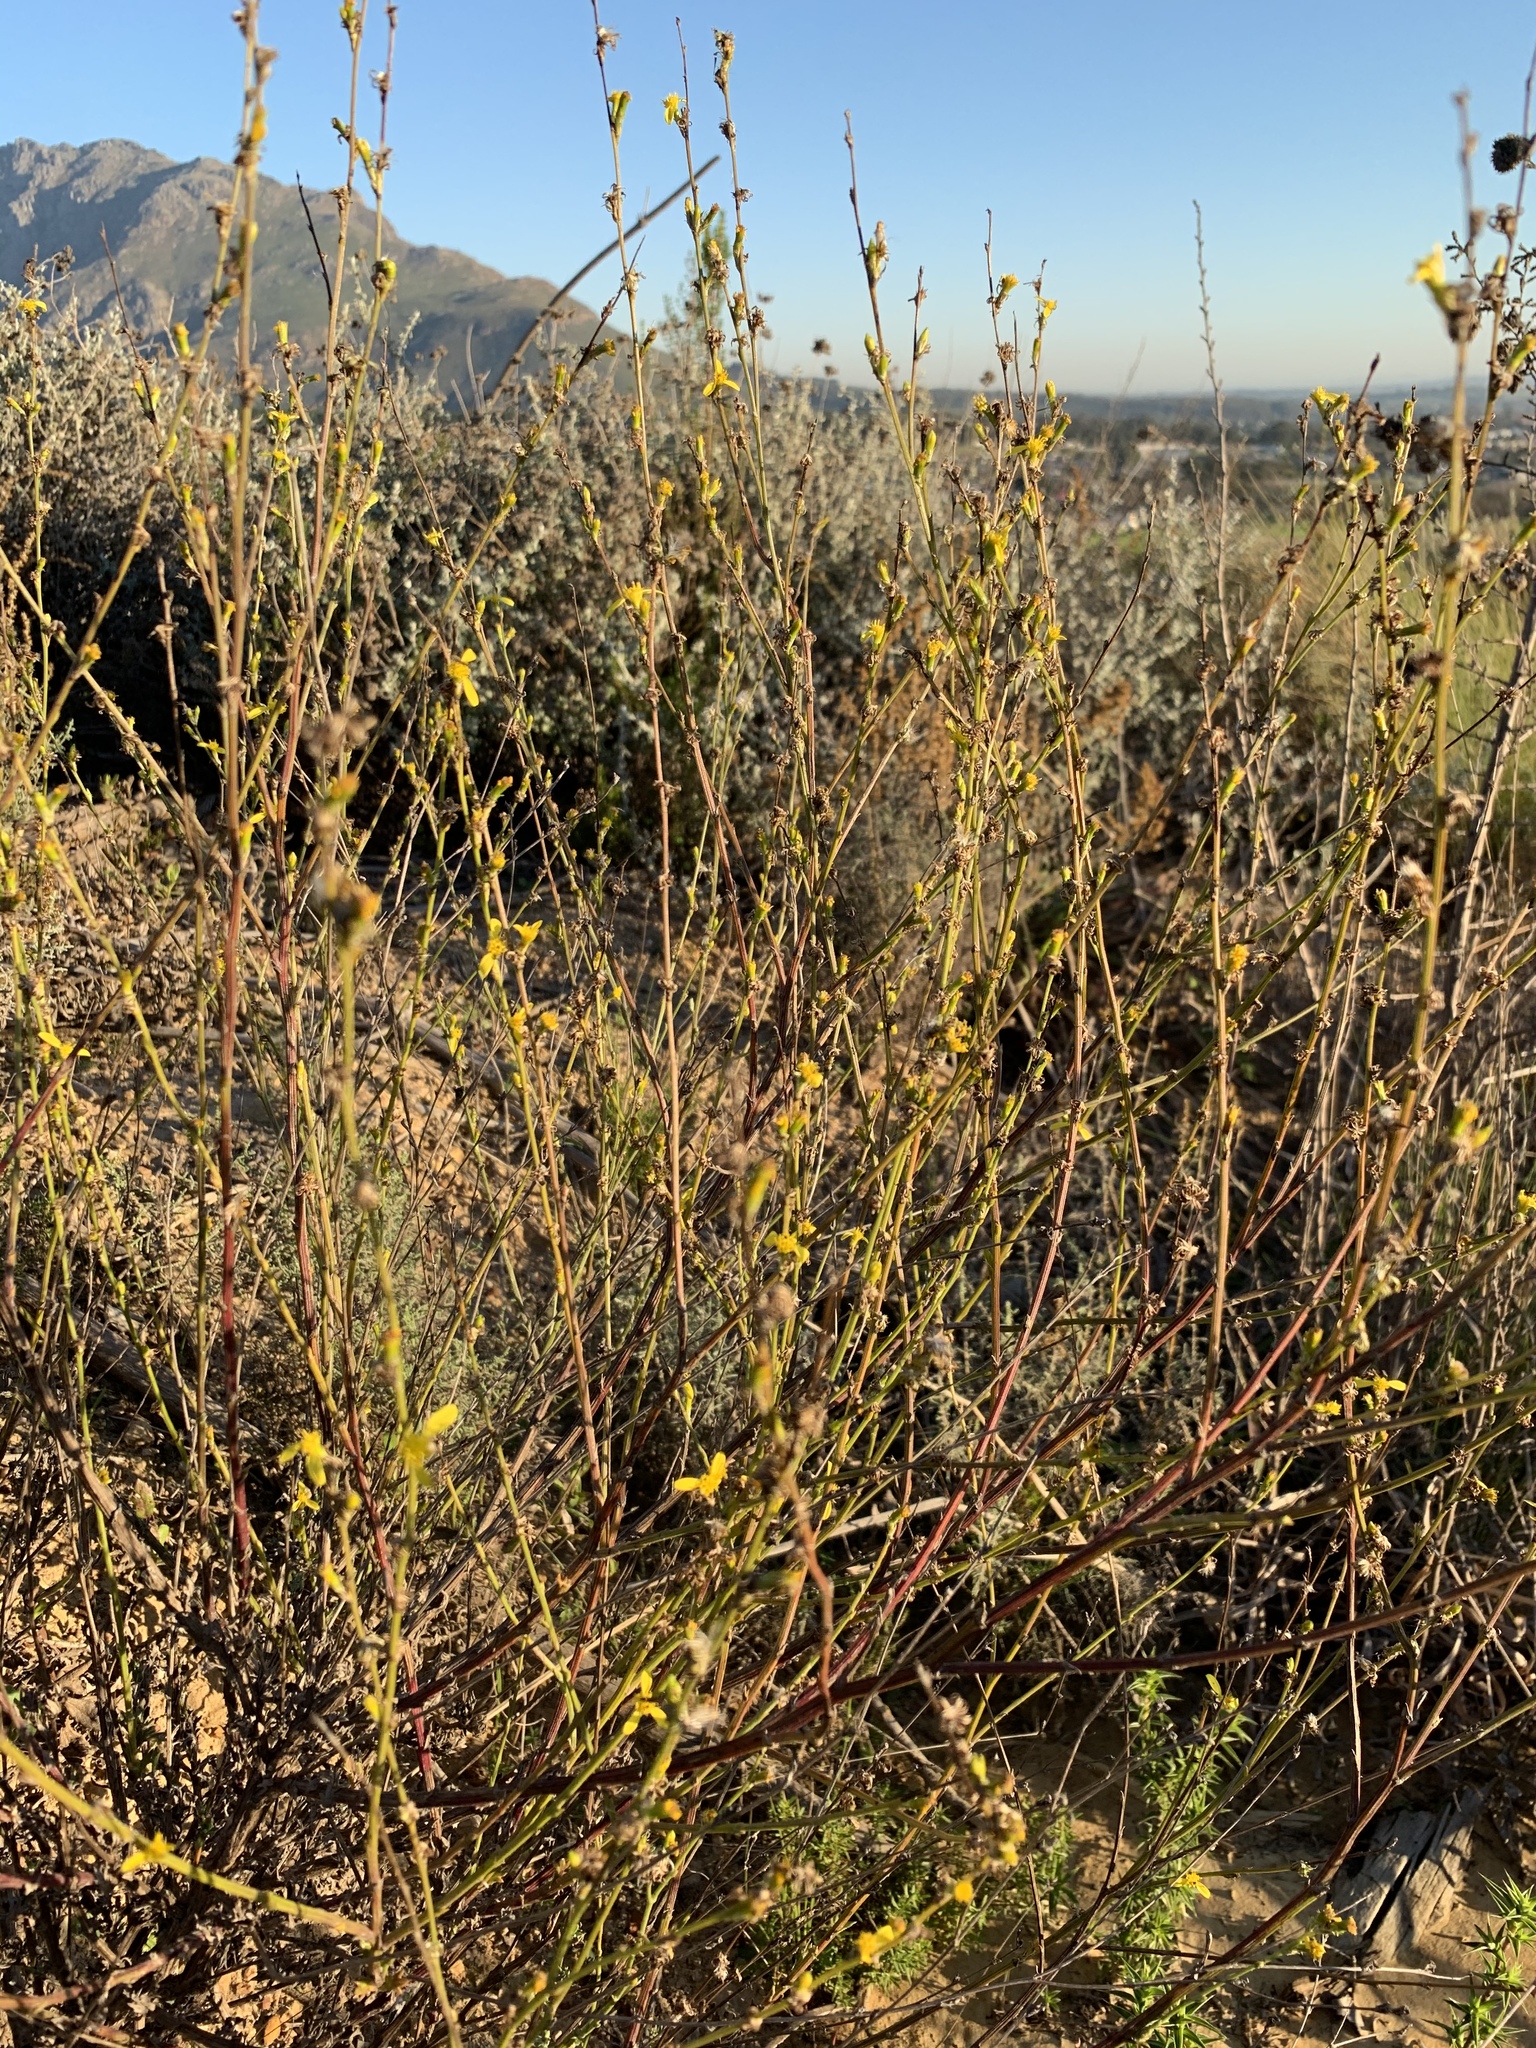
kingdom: Plantae
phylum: Tracheophyta
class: Magnoliopsida
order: Asterales
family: Asteraceae
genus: Senecio
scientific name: Senecio pubigerus
